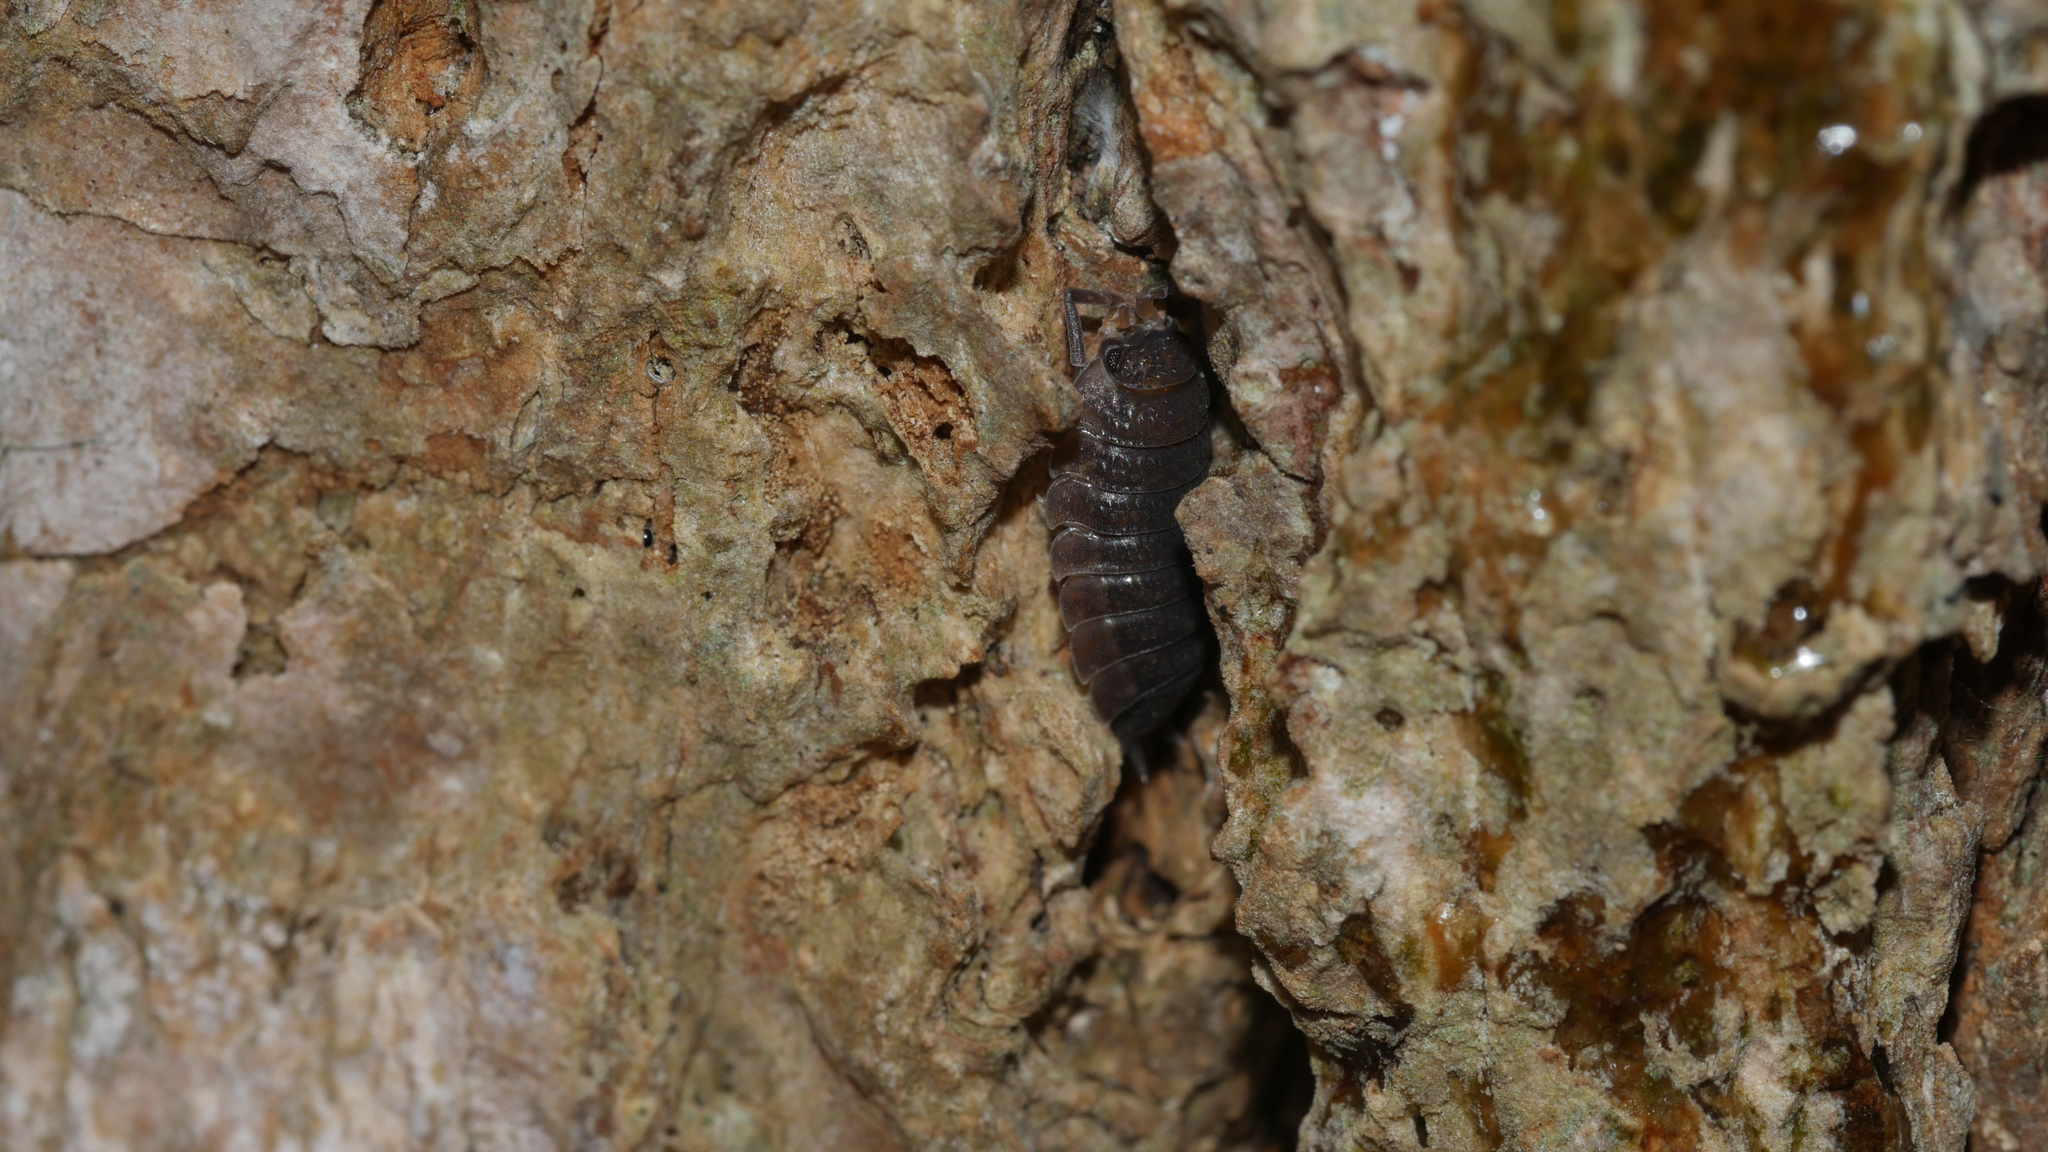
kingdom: Animalia
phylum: Arthropoda
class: Malacostraca
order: Isopoda
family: Porcellionidae
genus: Porcellio
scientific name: Porcellio scaber
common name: Common rough woodlouse
